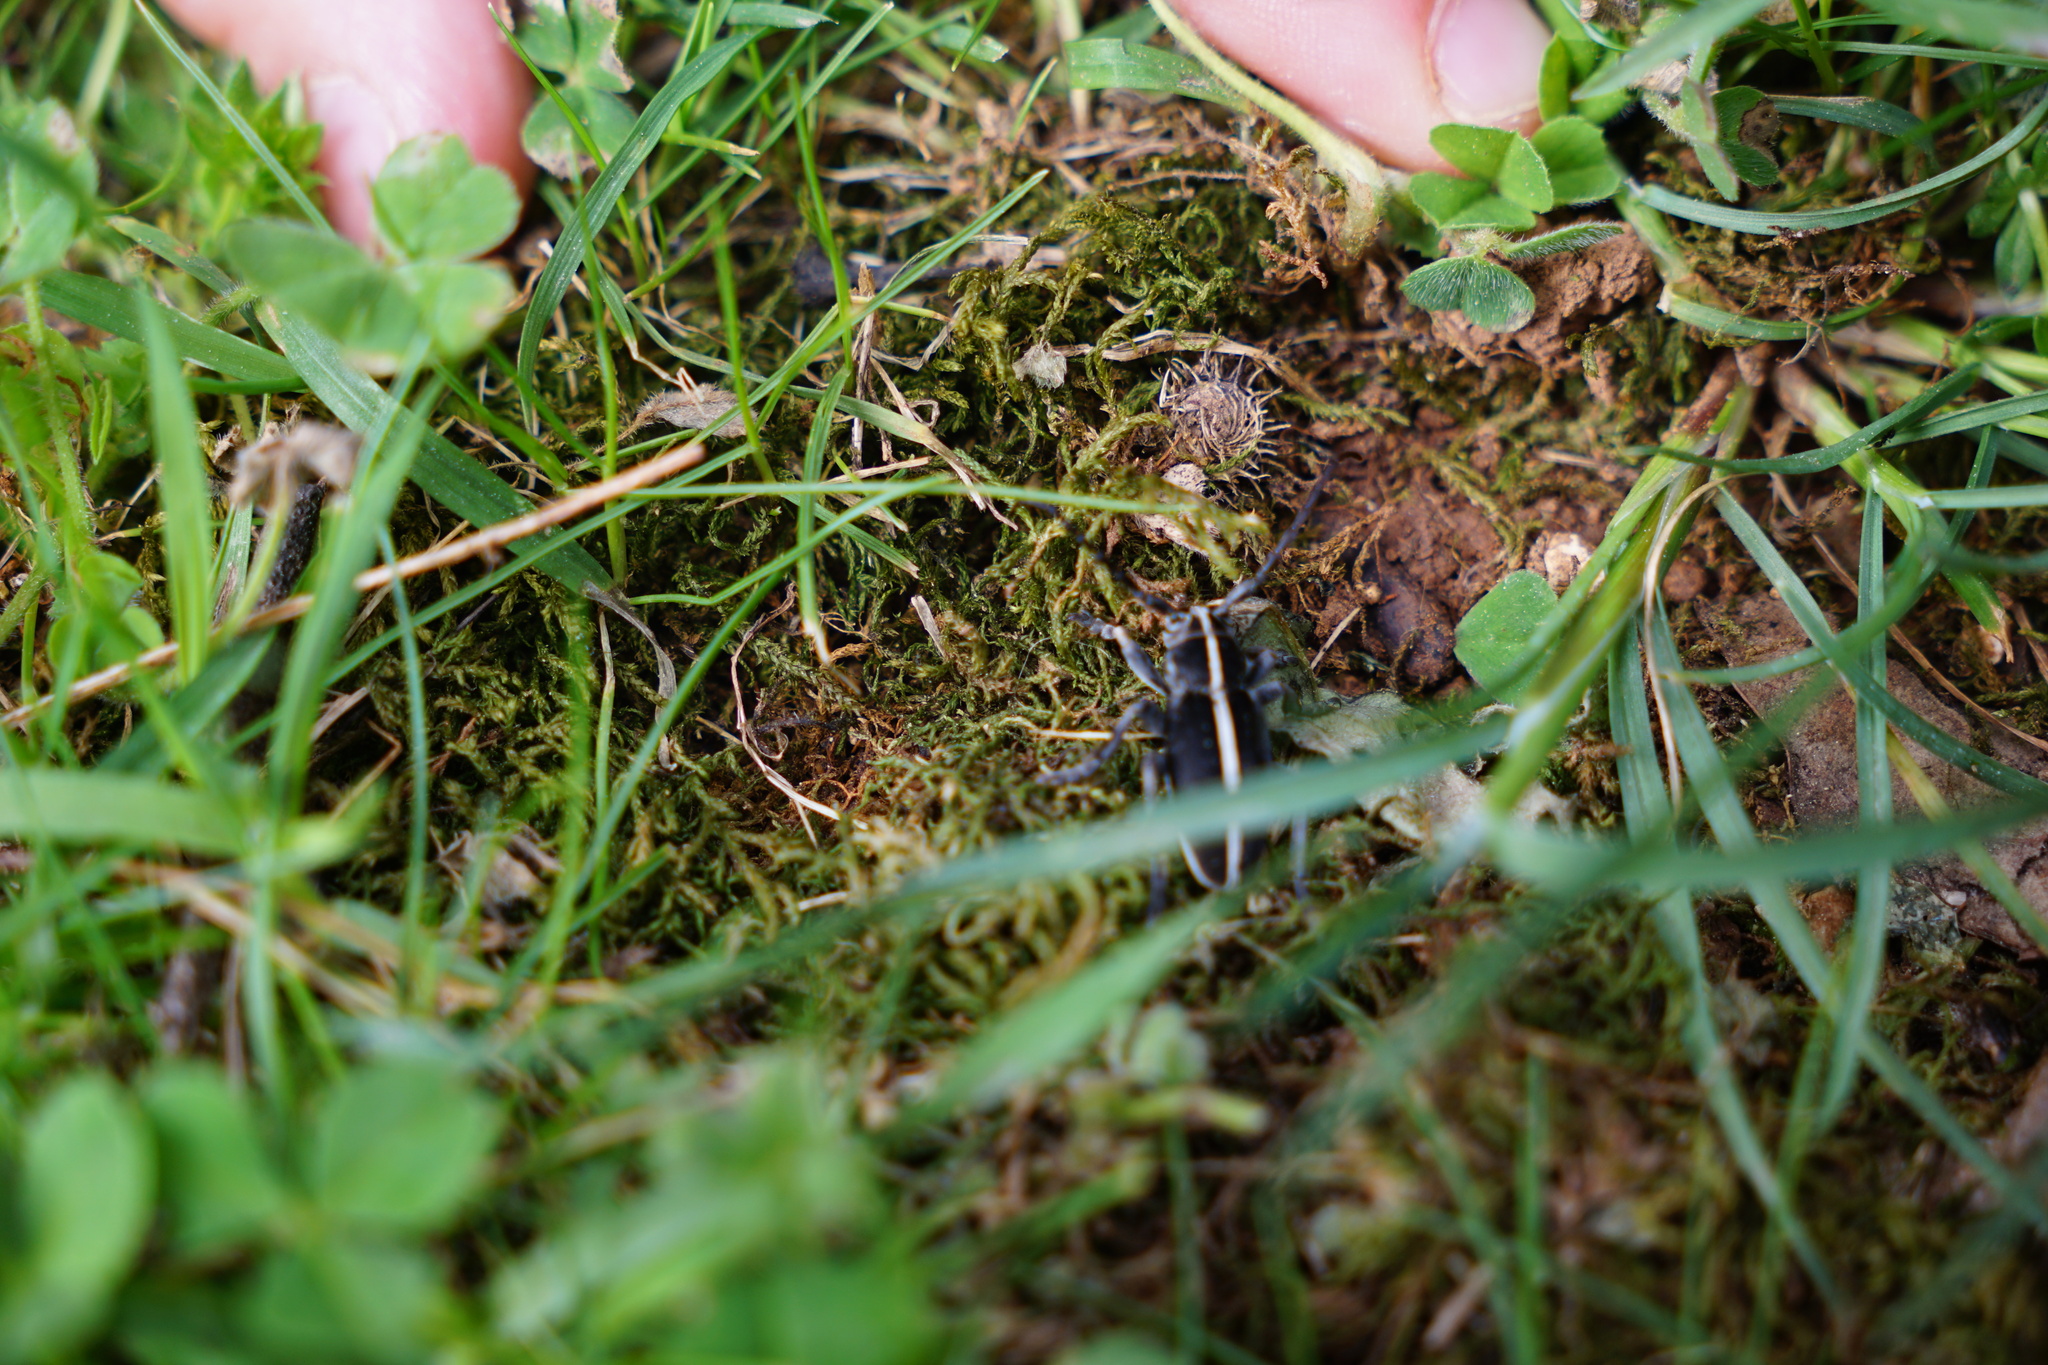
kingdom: Animalia
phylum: Arthropoda
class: Insecta
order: Coleoptera
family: Cerambycidae
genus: Dorcadion
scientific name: Dorcadion arenarium
